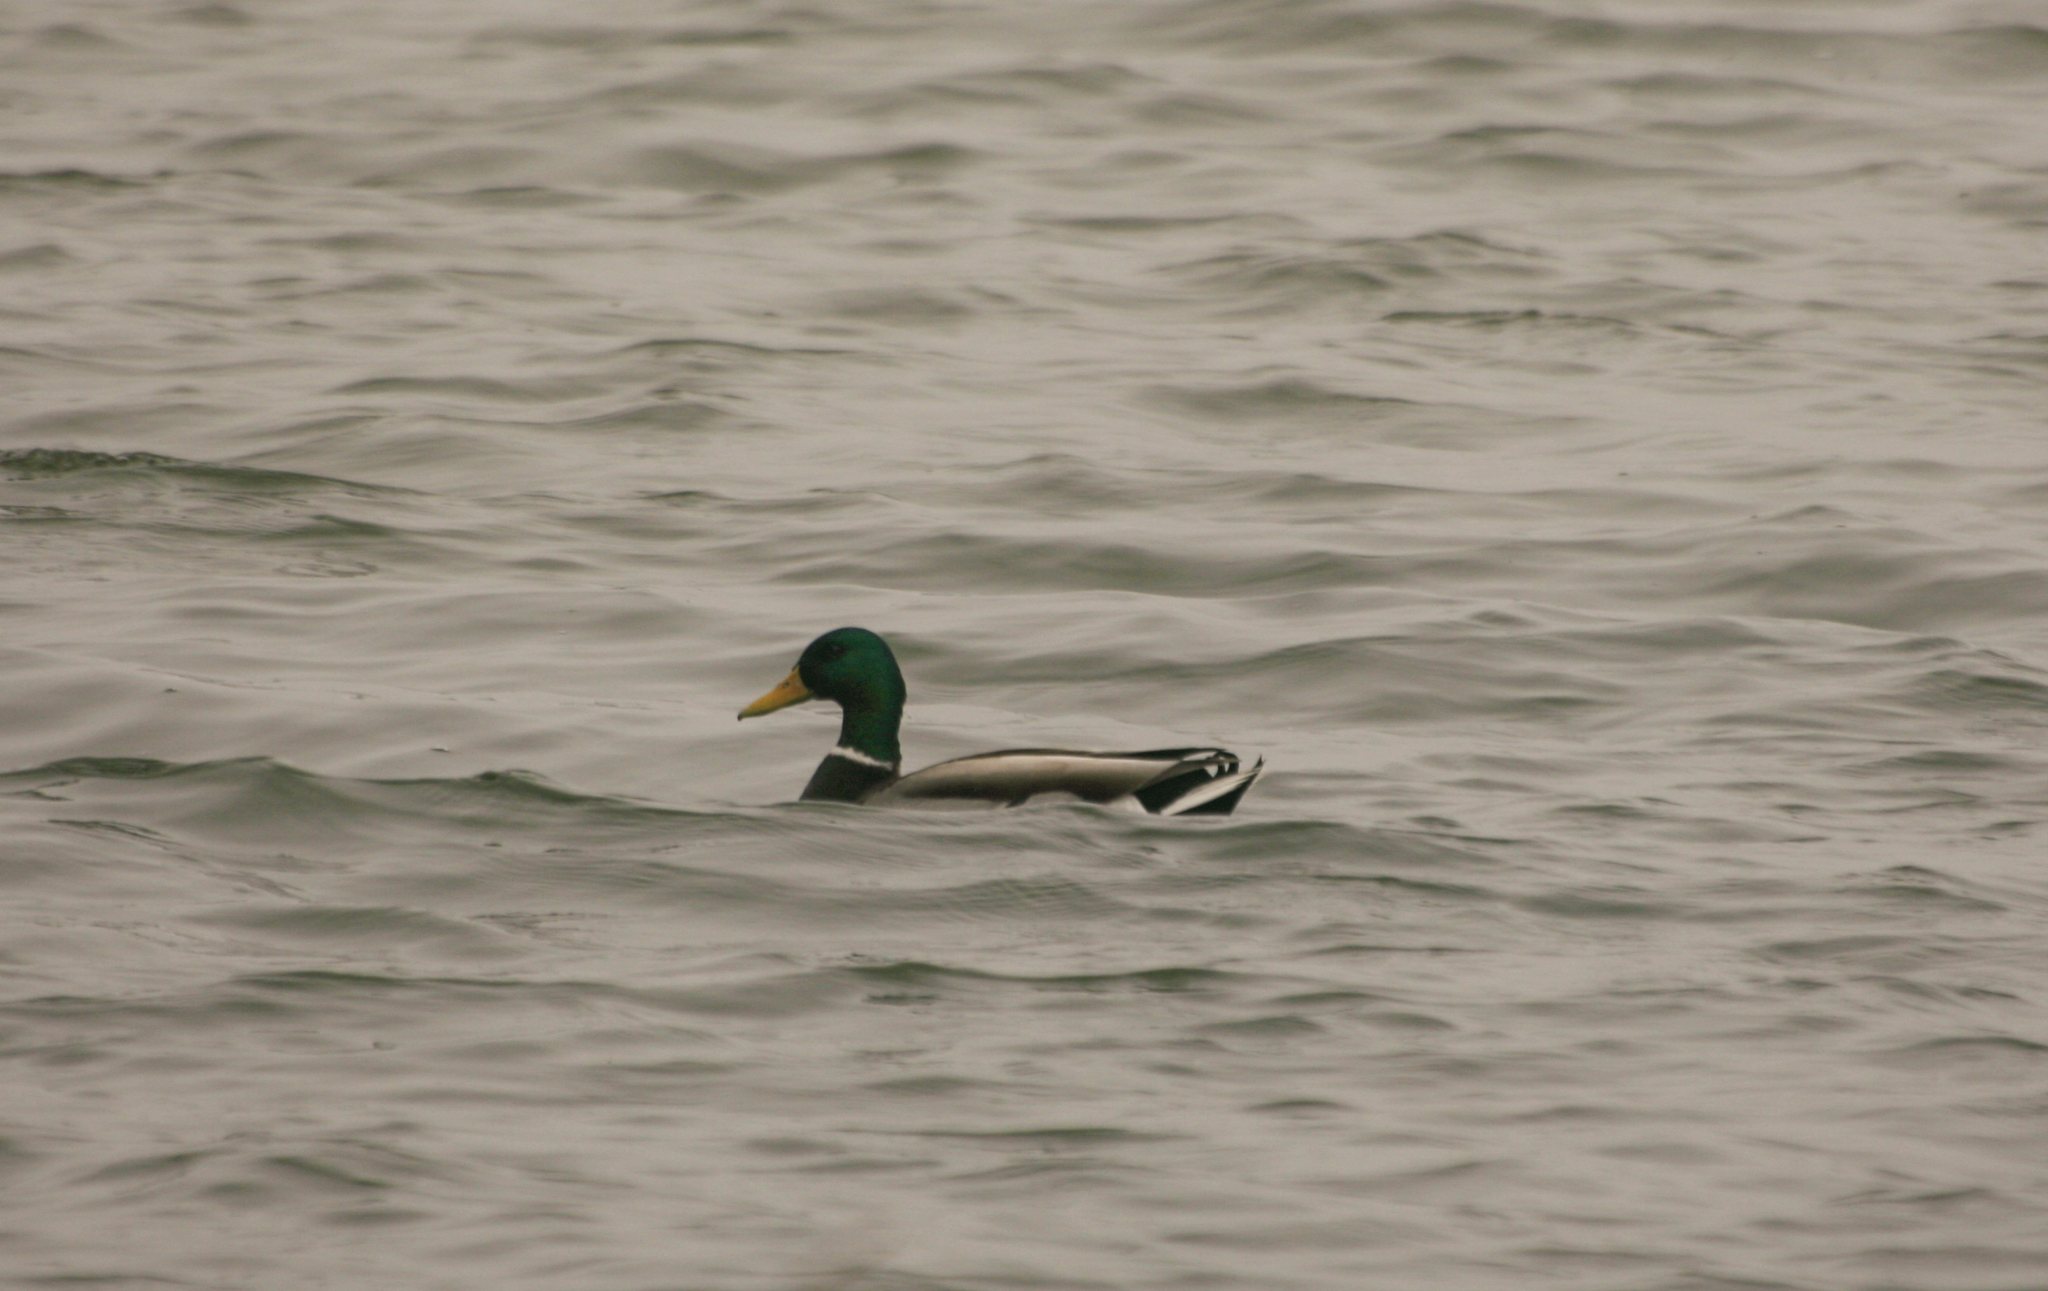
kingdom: Animalia
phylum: Chordata
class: Aves
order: Anseriformes
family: Anatidae
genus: Anas
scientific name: Anas platyrhynchos
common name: Mallard
